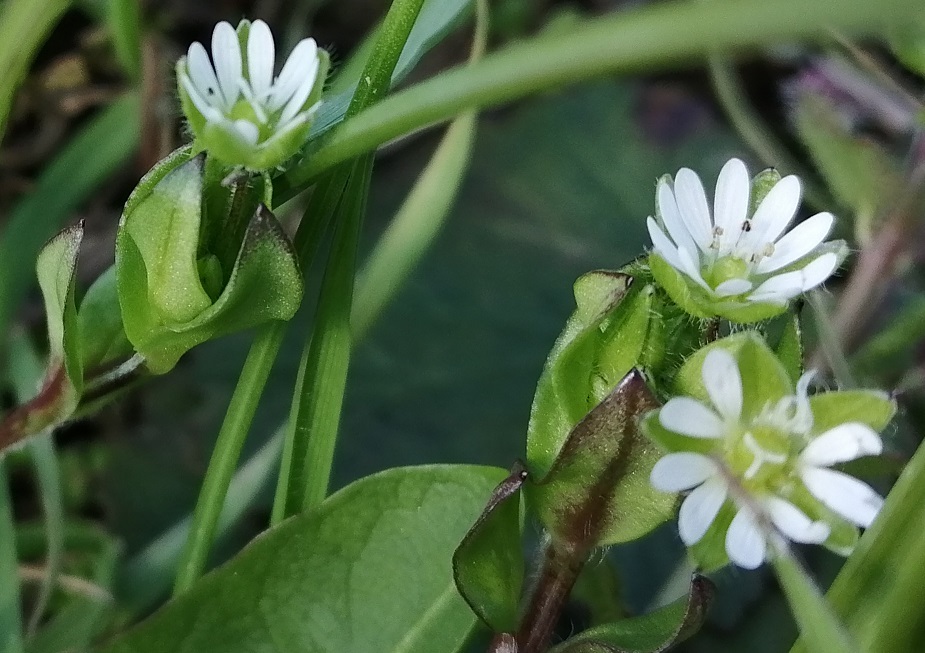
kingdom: Plantae
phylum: Tracheophyta
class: Magnoliopsida
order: Caryophyllales
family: Caryophyllaceae
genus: Stellaria
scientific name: Stellaria media
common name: Common chickweed
